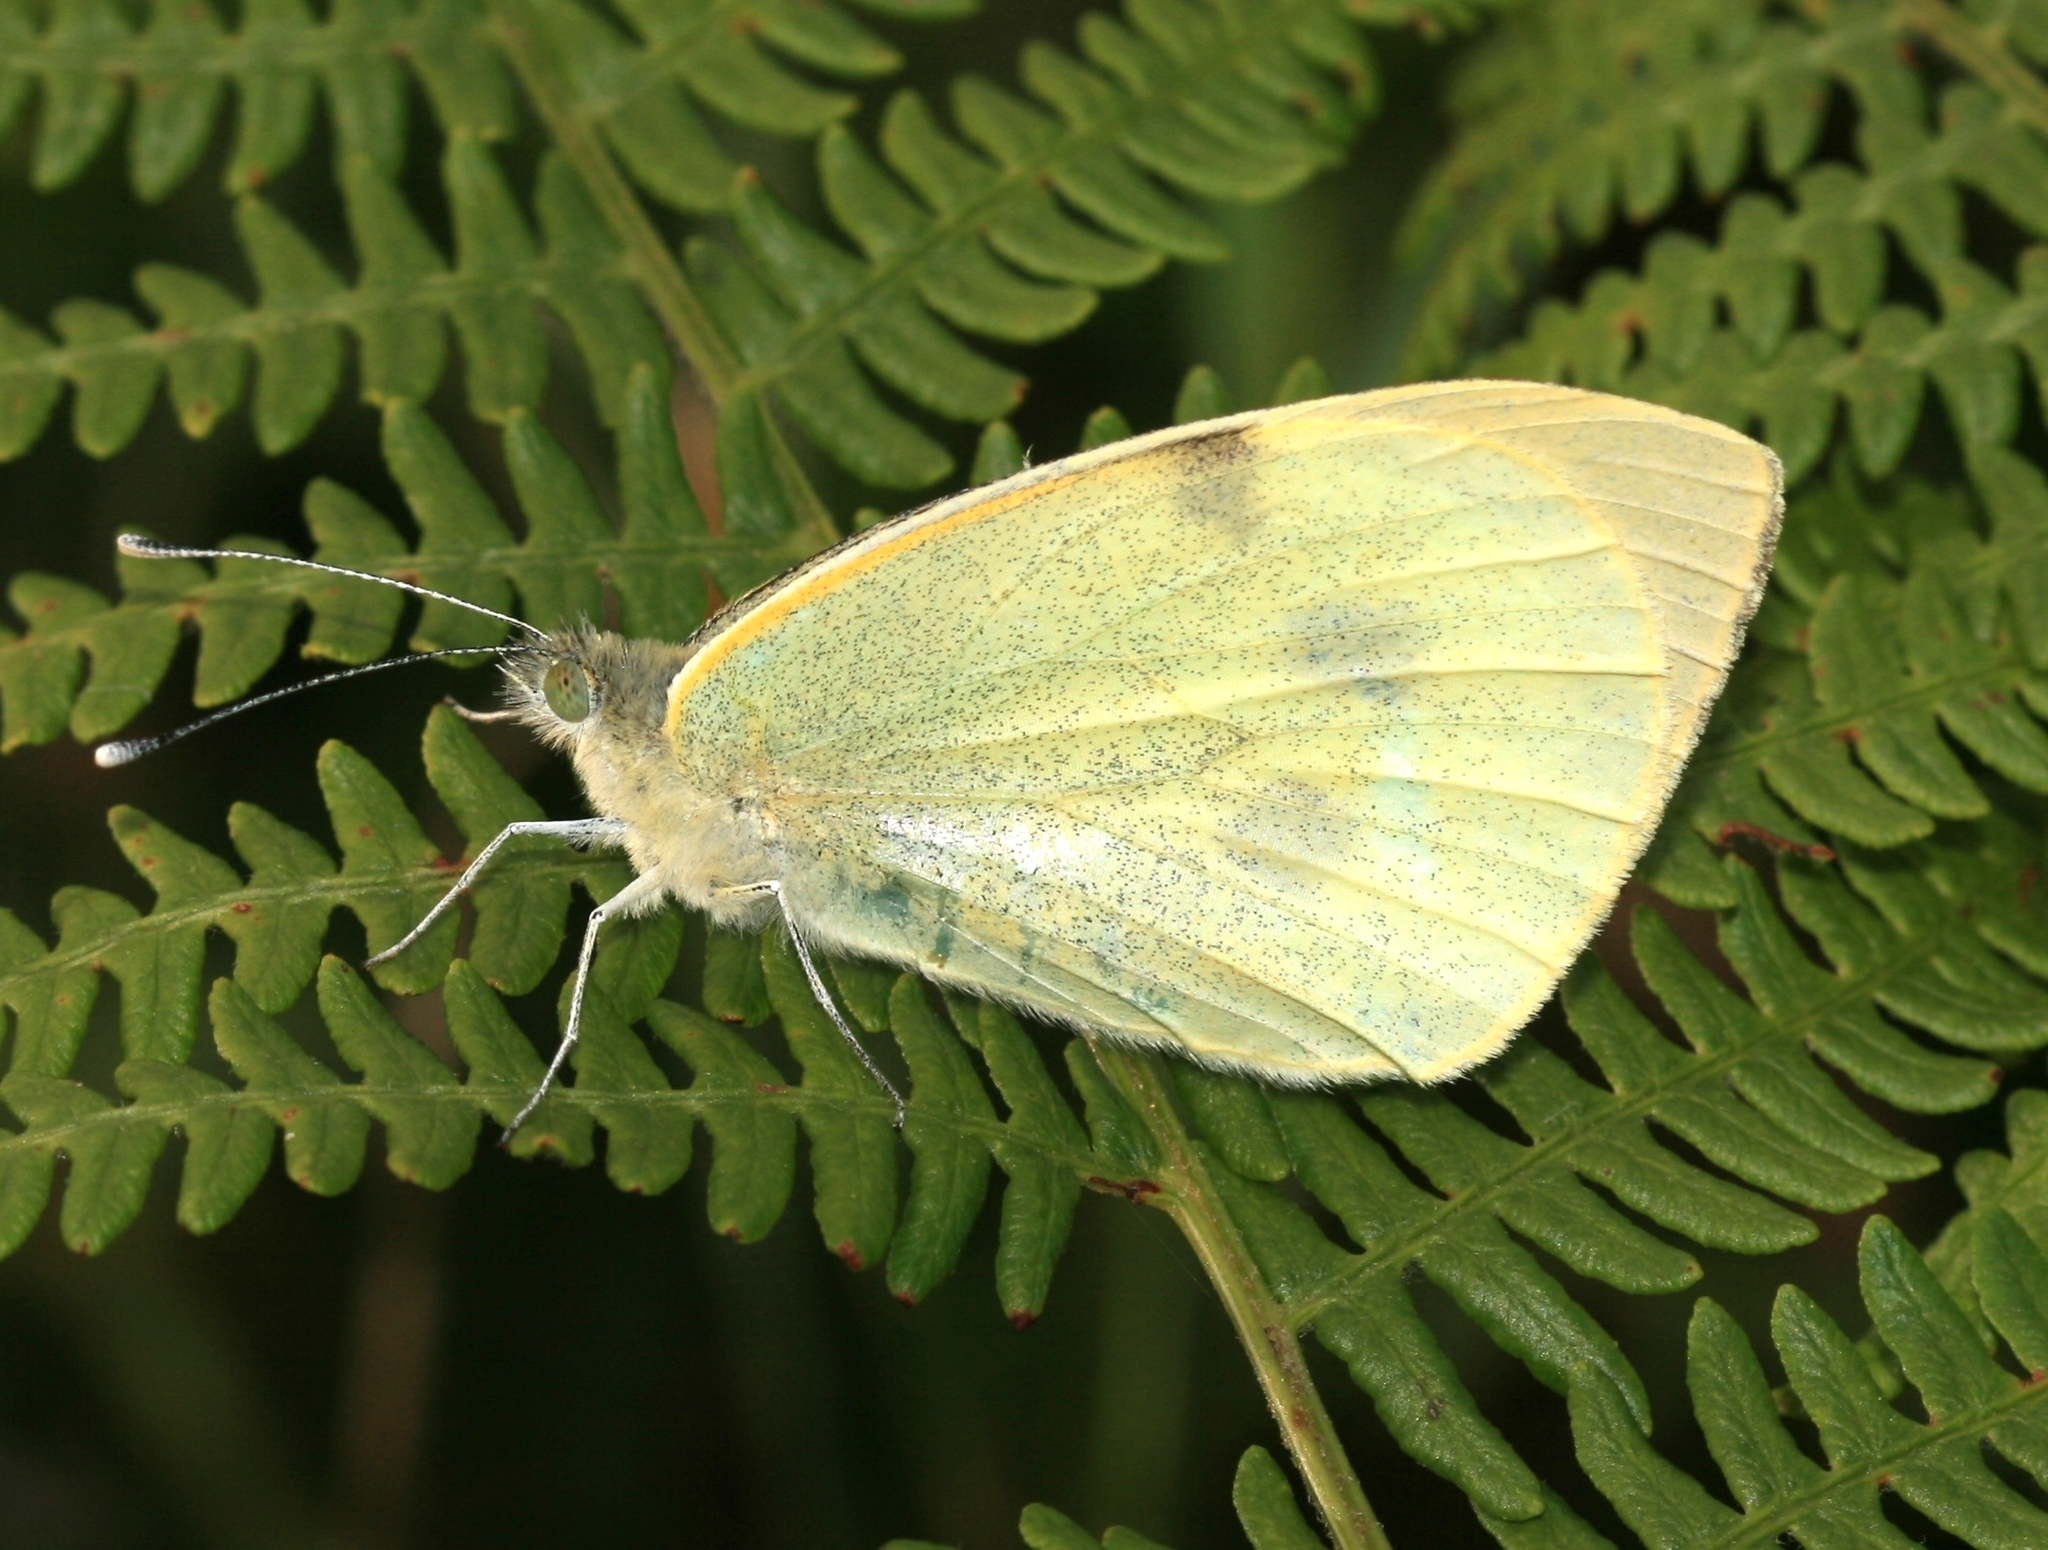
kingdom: Animalia
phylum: Arthropoda
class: Insecta
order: Lepidoptera
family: Pieridae
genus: Pieris
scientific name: Pieris brassicae
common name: Large white
